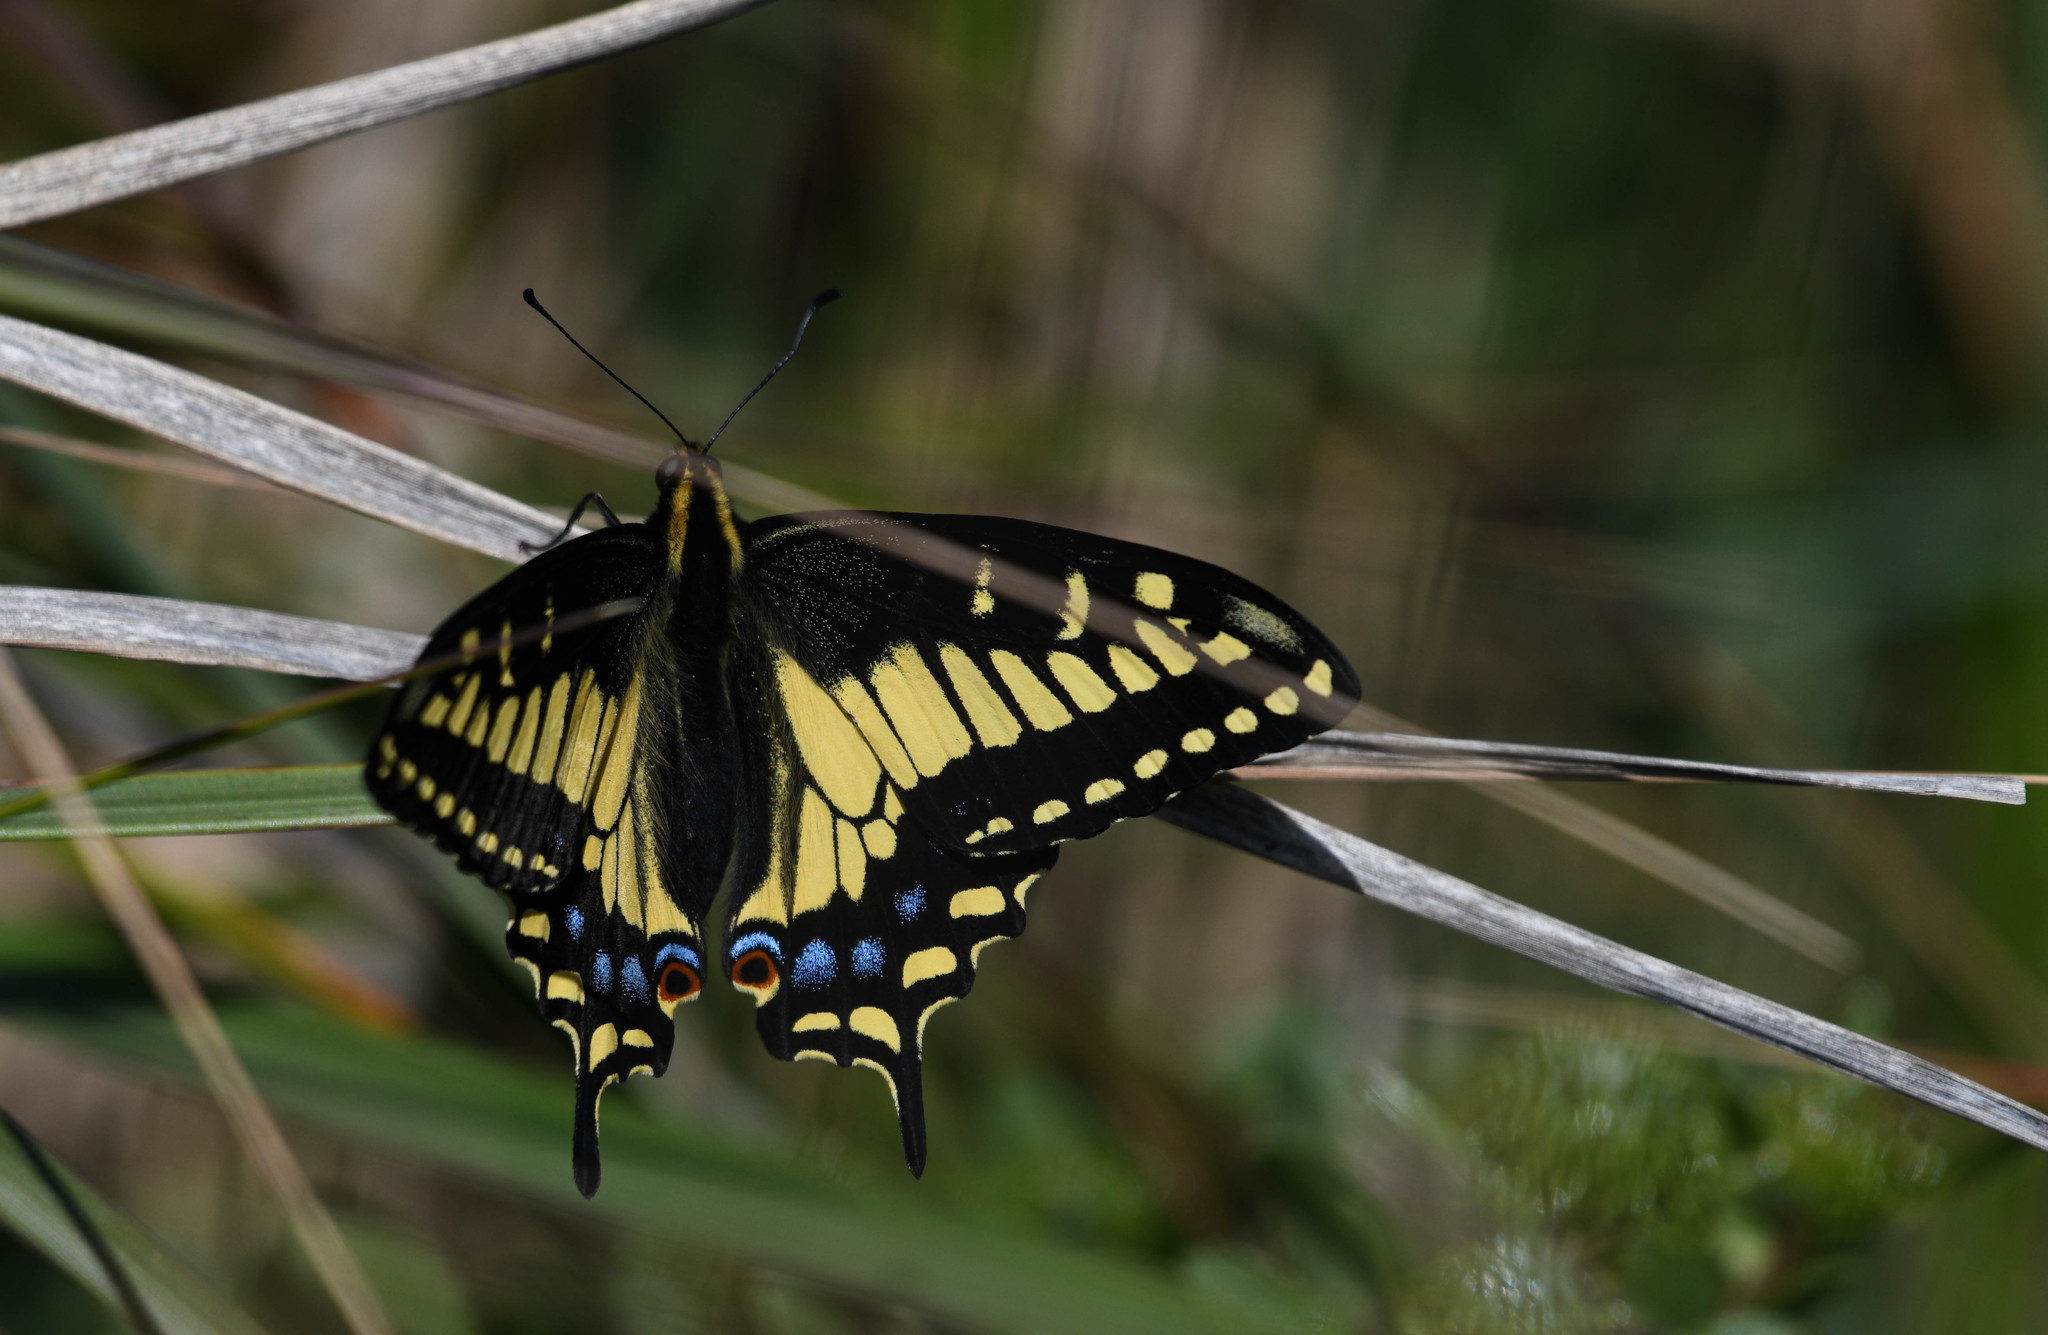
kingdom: Animalia
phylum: Arthropoda
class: Insecta
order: Lepidoptera
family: Papilionidae
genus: Papilio
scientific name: Papilio zelicaon
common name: Anise swallowtail
